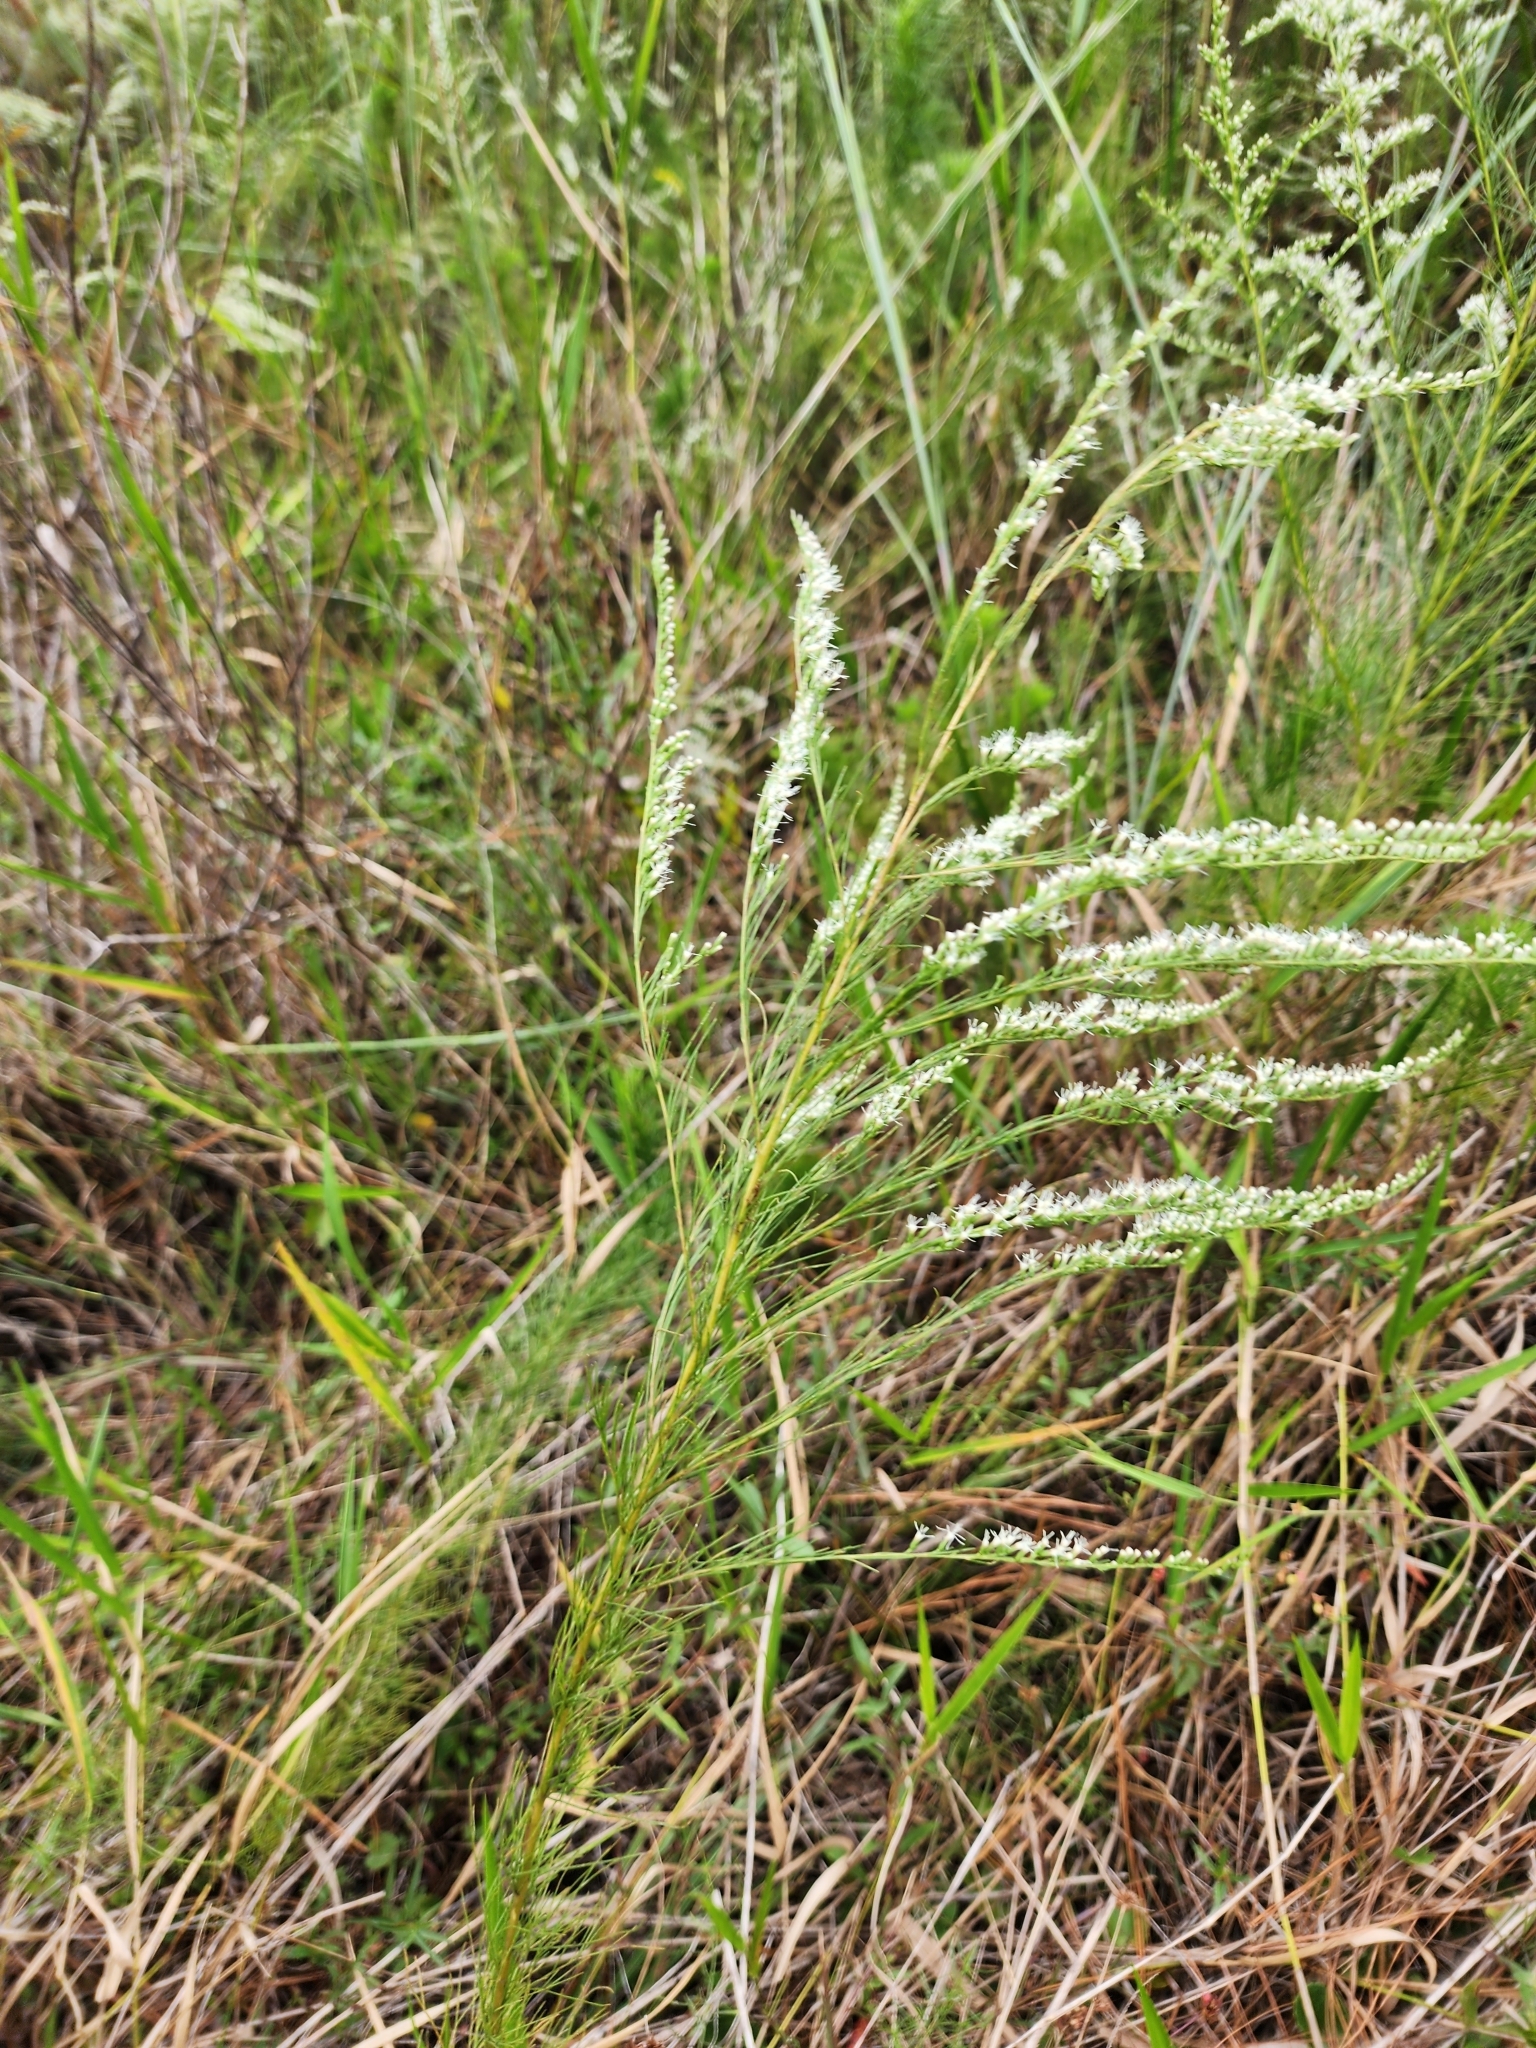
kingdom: Plantae
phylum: Tracheophyta
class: Magnoliopsida
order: Asterales
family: Asteraceae
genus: Eupatorium
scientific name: Eupatorium leptophyllum
